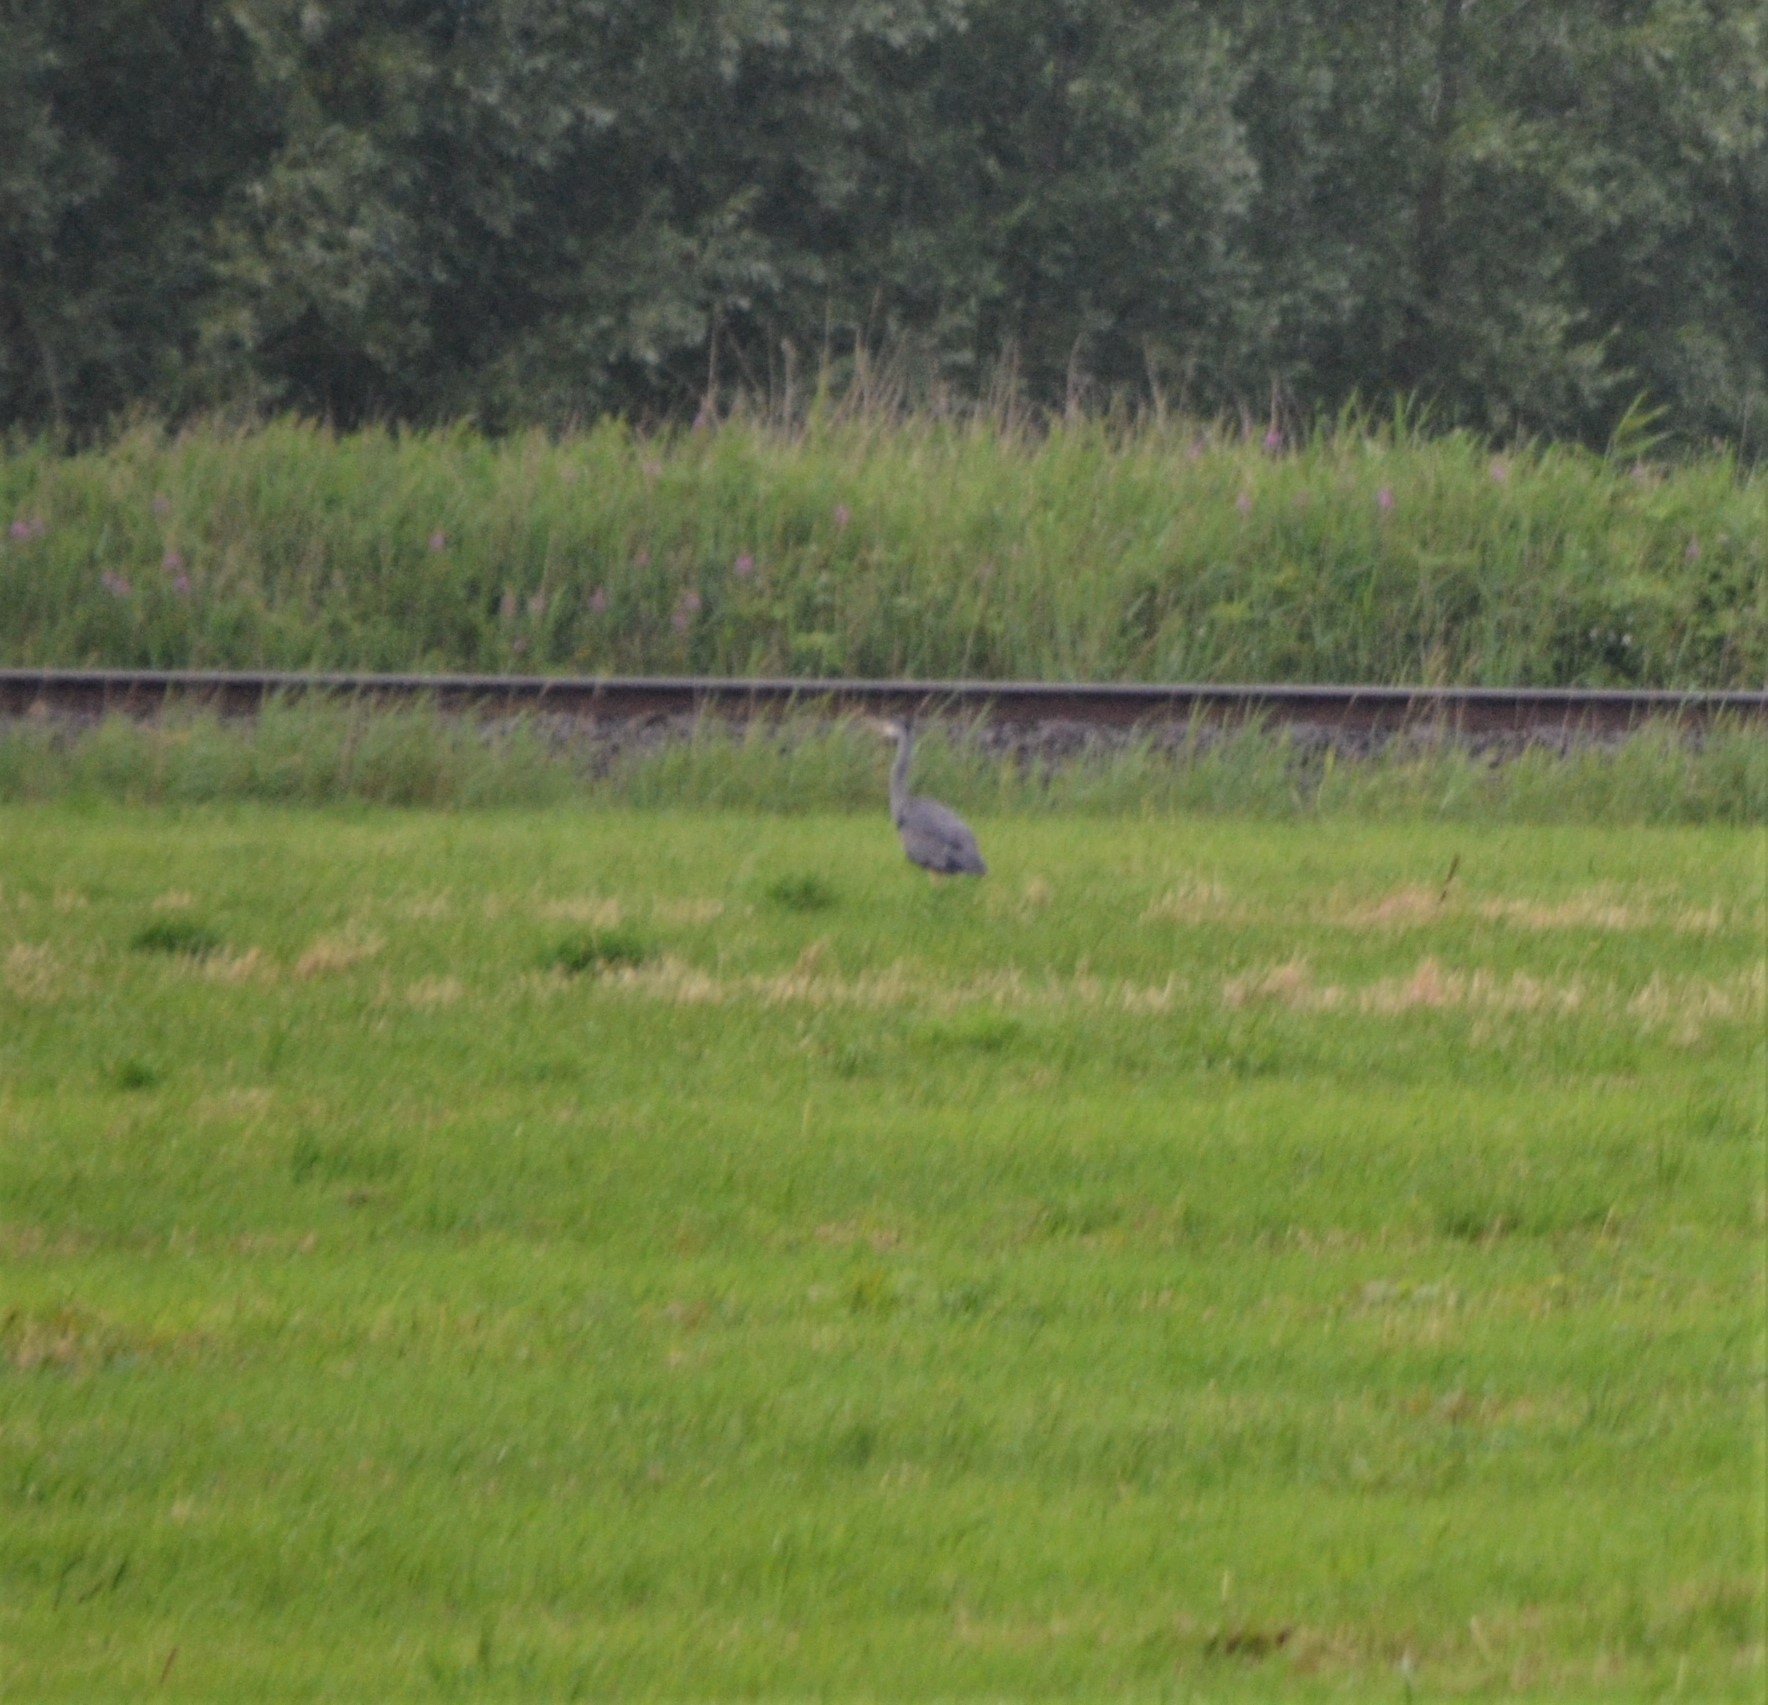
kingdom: Animalia
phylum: Chordata
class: Aves
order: Pelecaniformes
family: Ardeidae
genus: Ardea
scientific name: Ardea cinerea
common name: Grey heron
